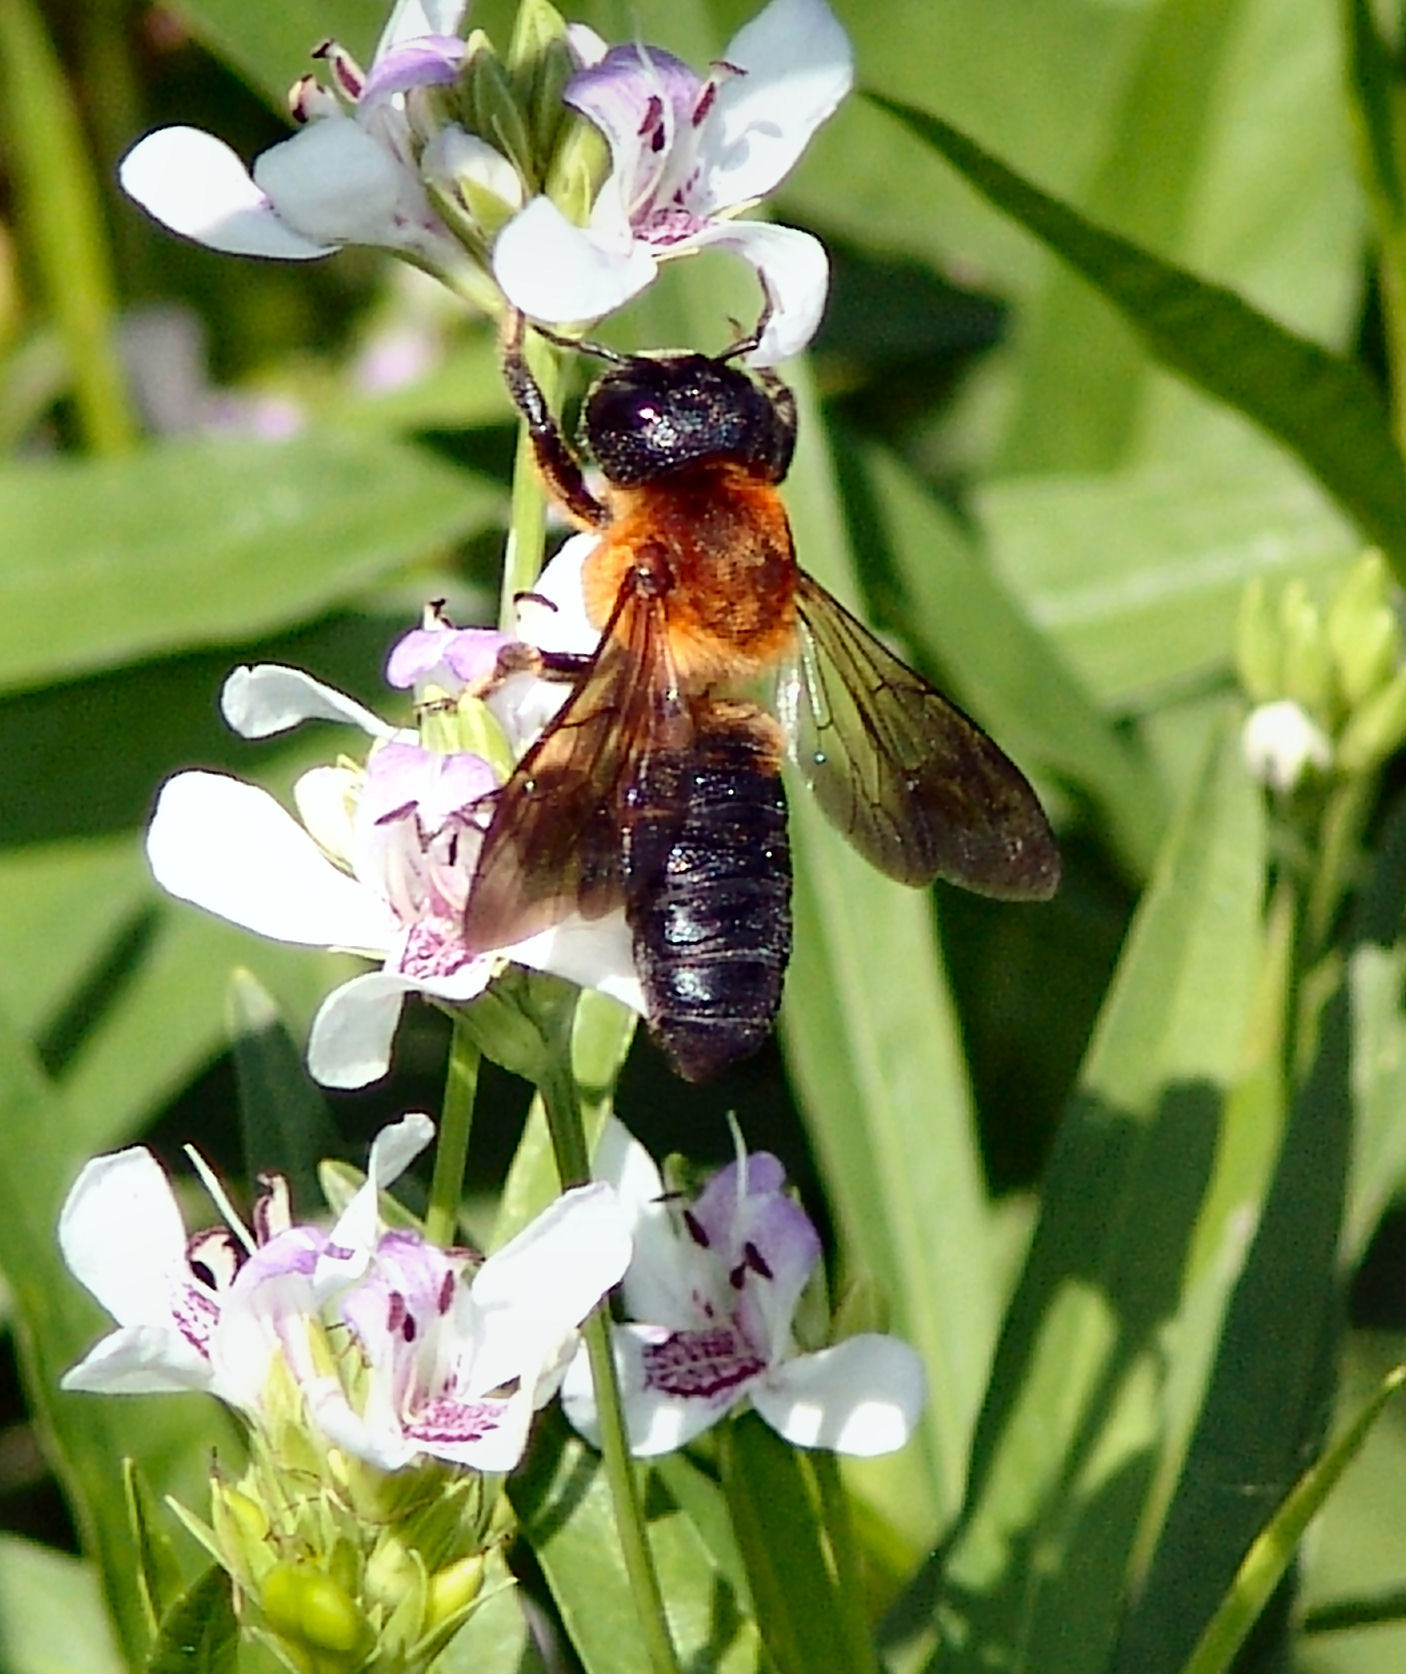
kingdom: Animalia
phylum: Arthropoda
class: Insecta
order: Hymenoptera
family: Megachilidae
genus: Megachile
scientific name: Megachile sculpturalis
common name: Sculptured resin bee
